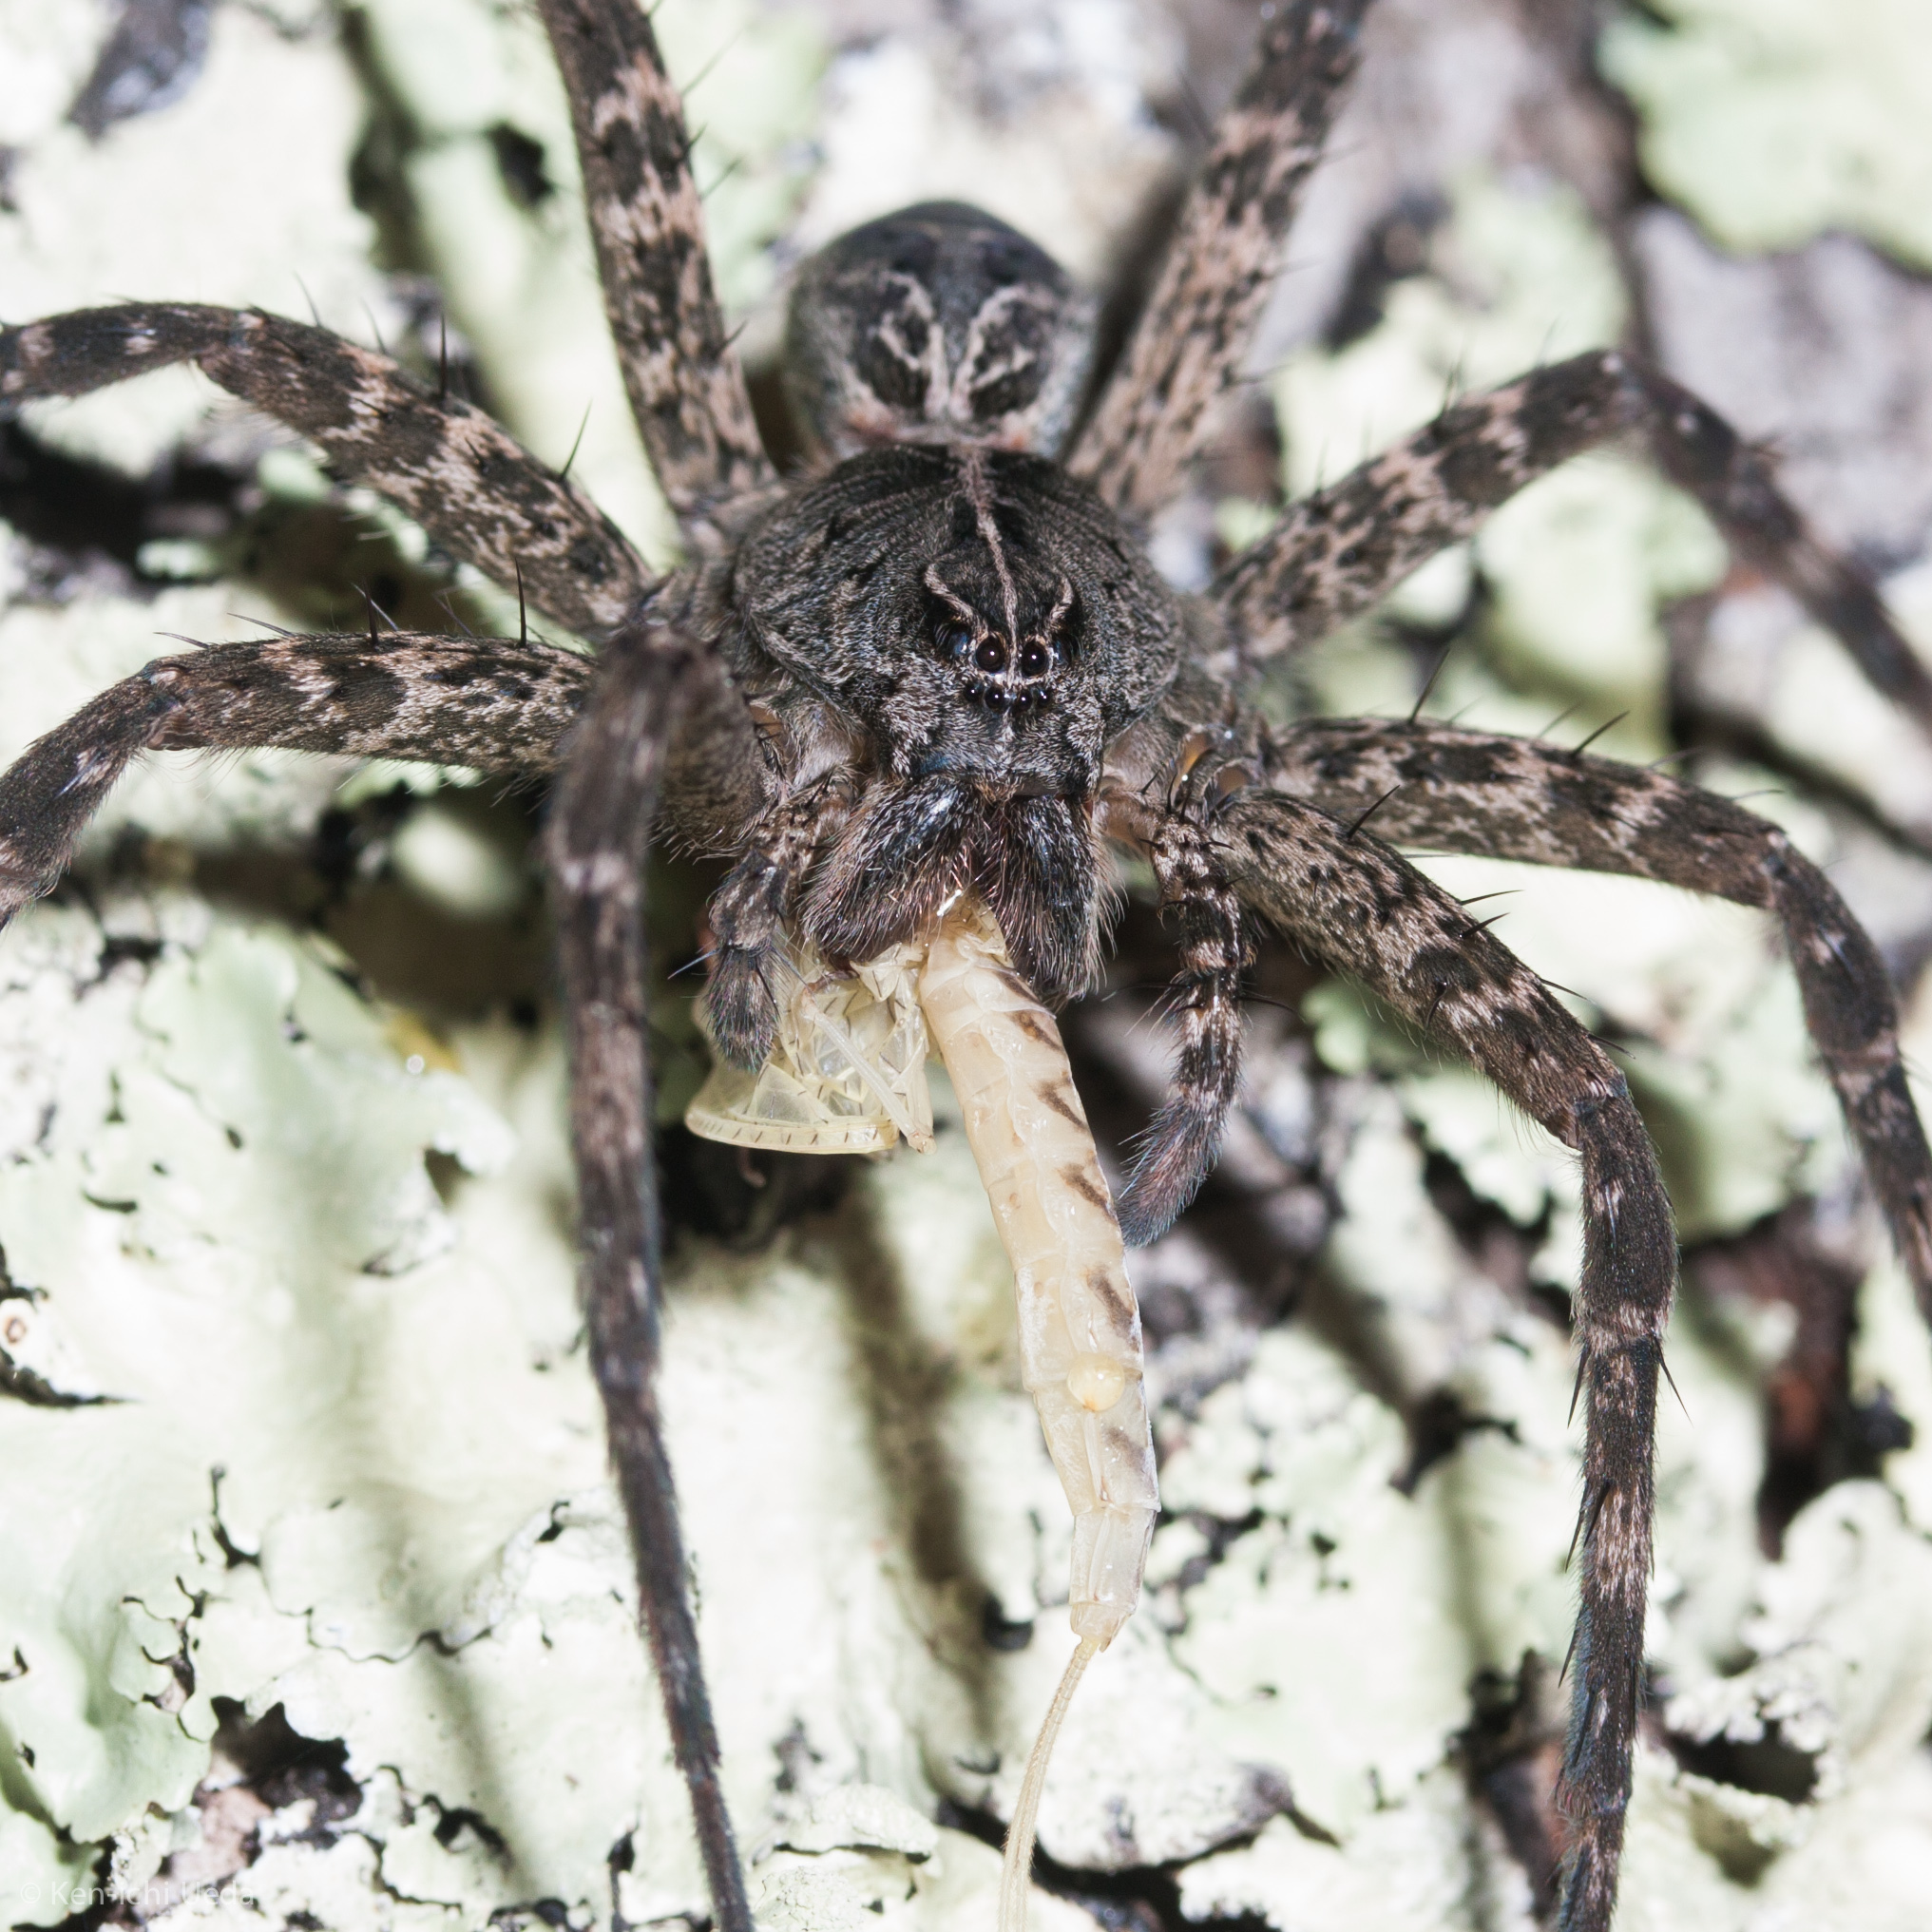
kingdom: Animalia
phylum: Arthropoda
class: Arachnida
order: Araneae
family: Pisauridae
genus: Dolomedes
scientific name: Dolomedes scriptus
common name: Striped fishing spider
